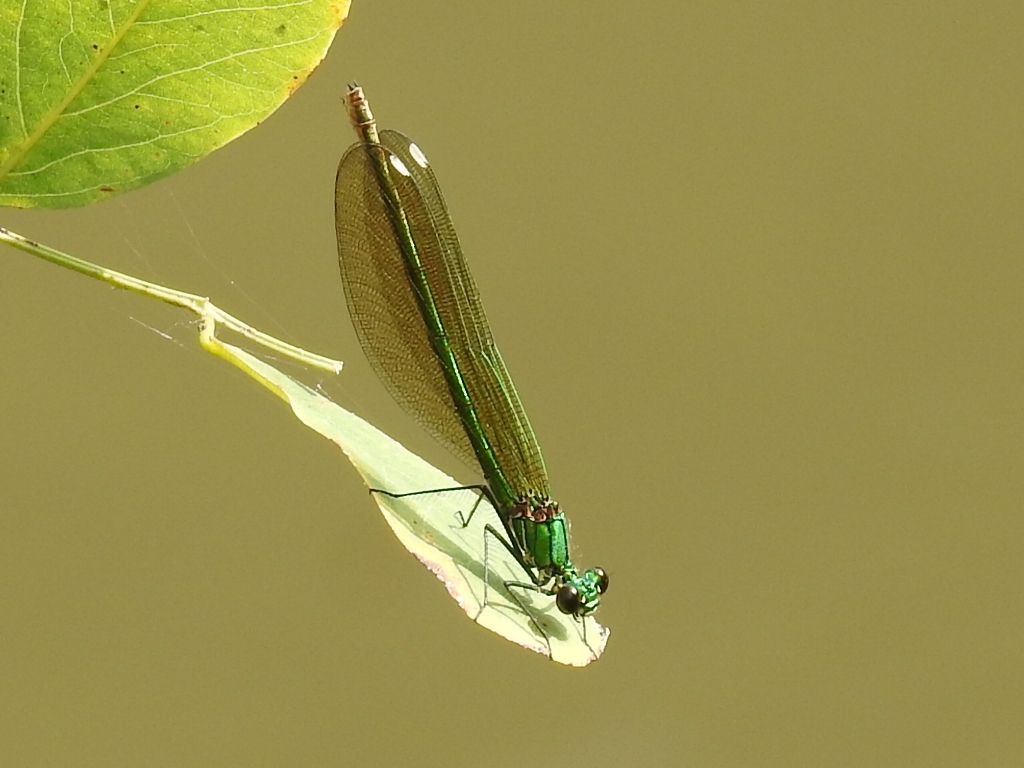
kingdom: Animalia
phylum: Arthropoda
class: Insecta
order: Odonata
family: Calopterygidae
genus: Calopteryx
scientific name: Calopteryx splendens
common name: Banded demoiselle
